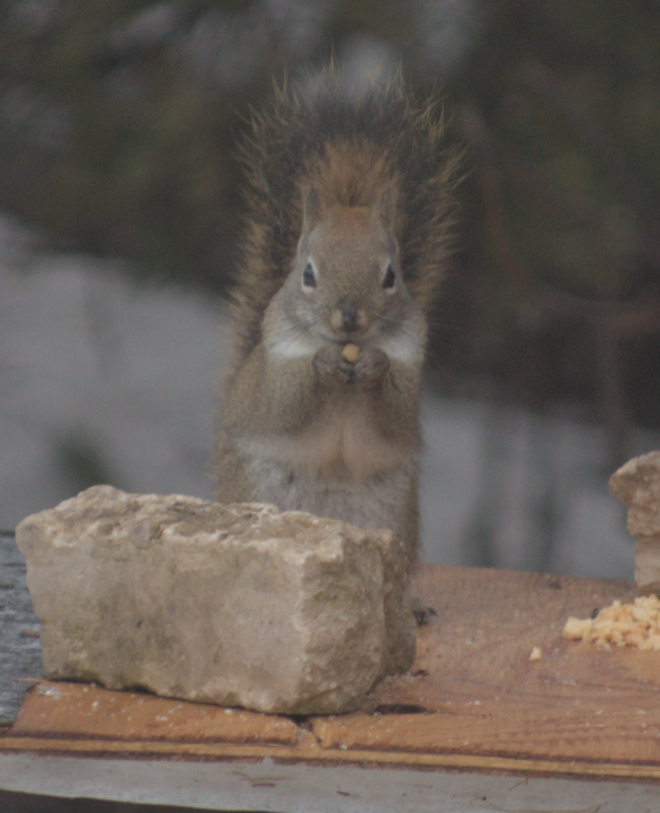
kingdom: Animalia
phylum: Chordata
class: Mammalia
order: Rodentia
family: Sciuridae
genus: Tamiasciurus
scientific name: Tamiasciurus hudsonicus
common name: Red squirrel
